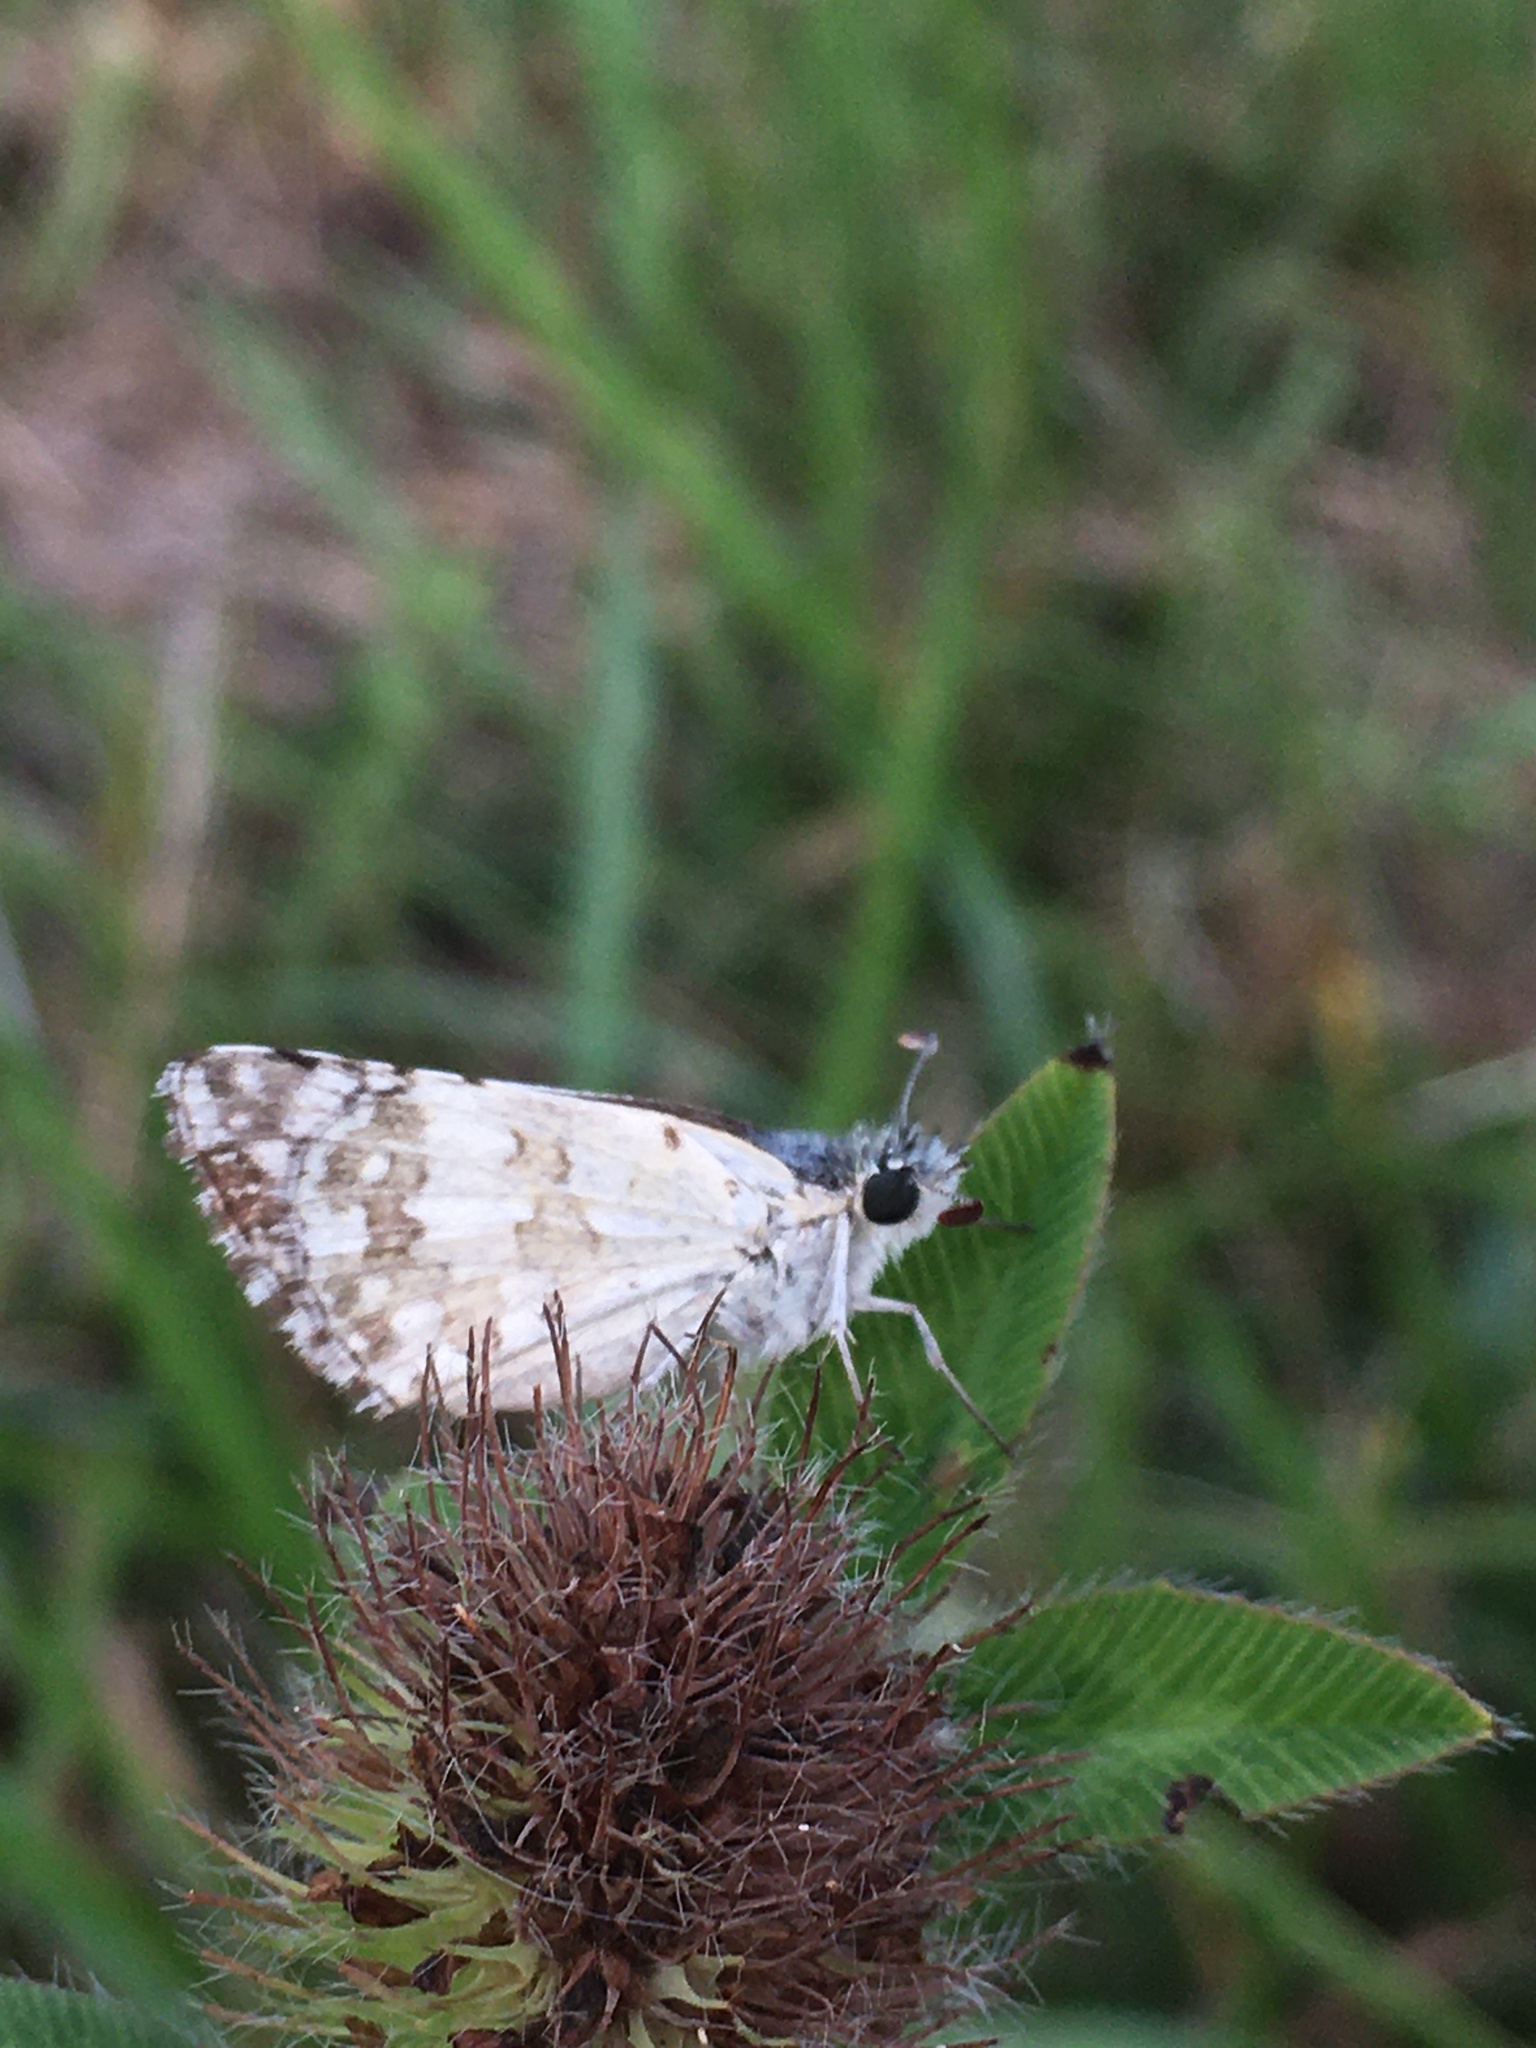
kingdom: Animalia
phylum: Arthropoda
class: Insecta
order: Lepidoptera
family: Hesperiidae
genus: Burnsius
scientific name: Burnsius communis
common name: Common checkered-skipper
